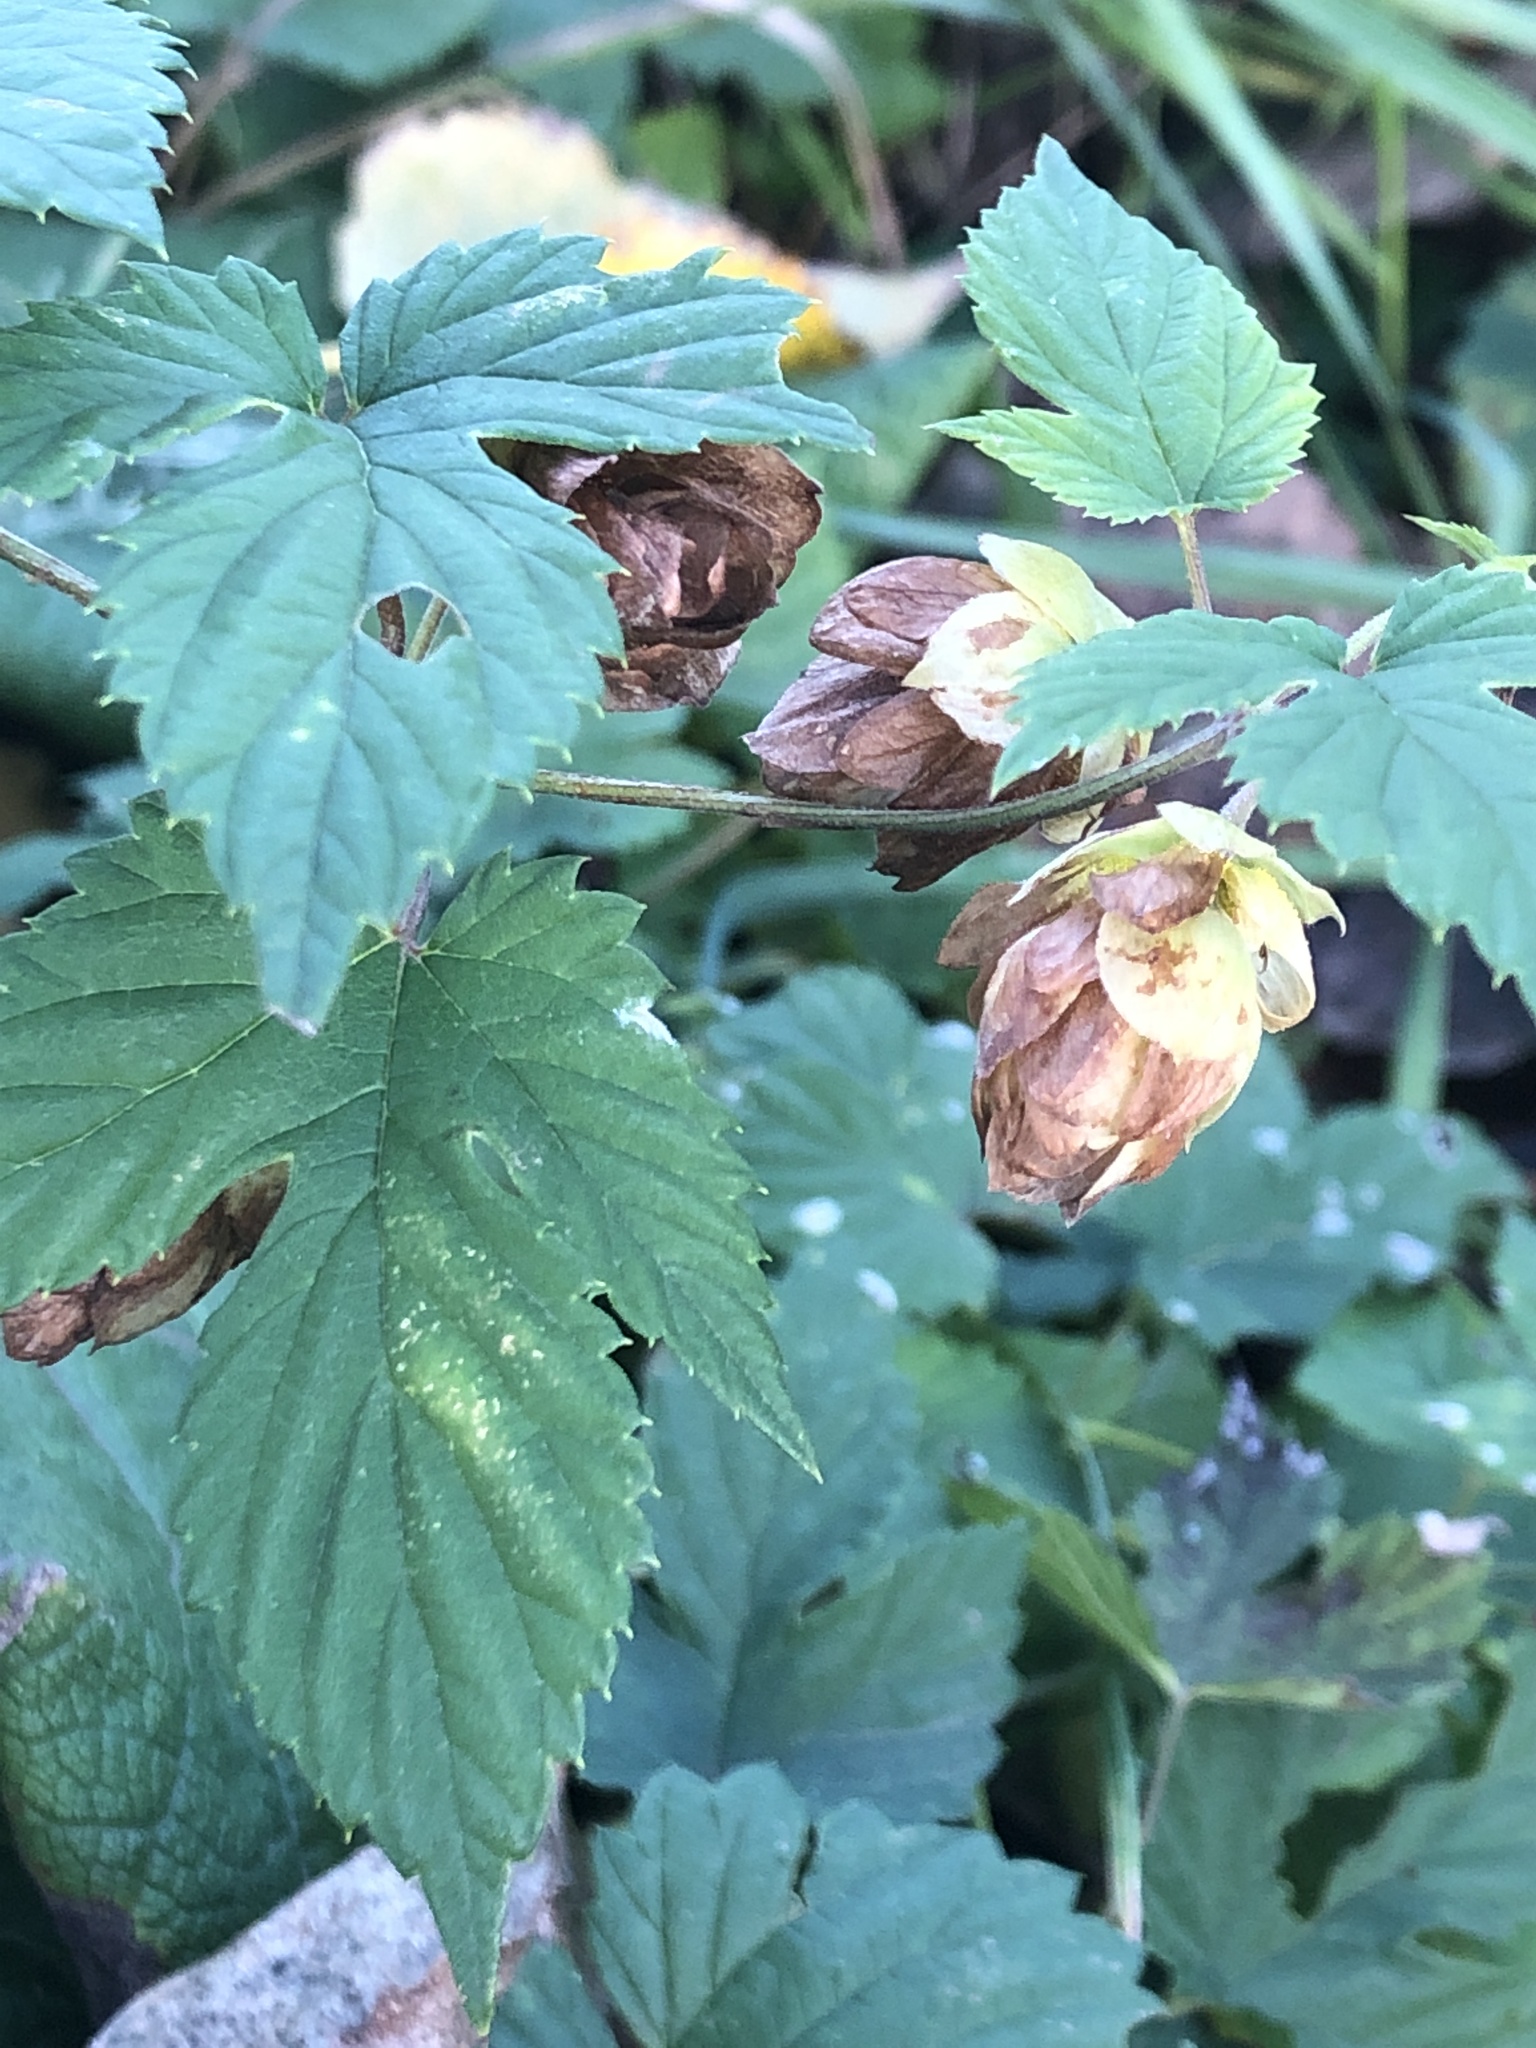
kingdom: Plantae
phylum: Tracheophyta
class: Magnoliopsida
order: Rosales
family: Cannabaceae
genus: Humulus
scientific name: Humulus lupulus
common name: Hop
